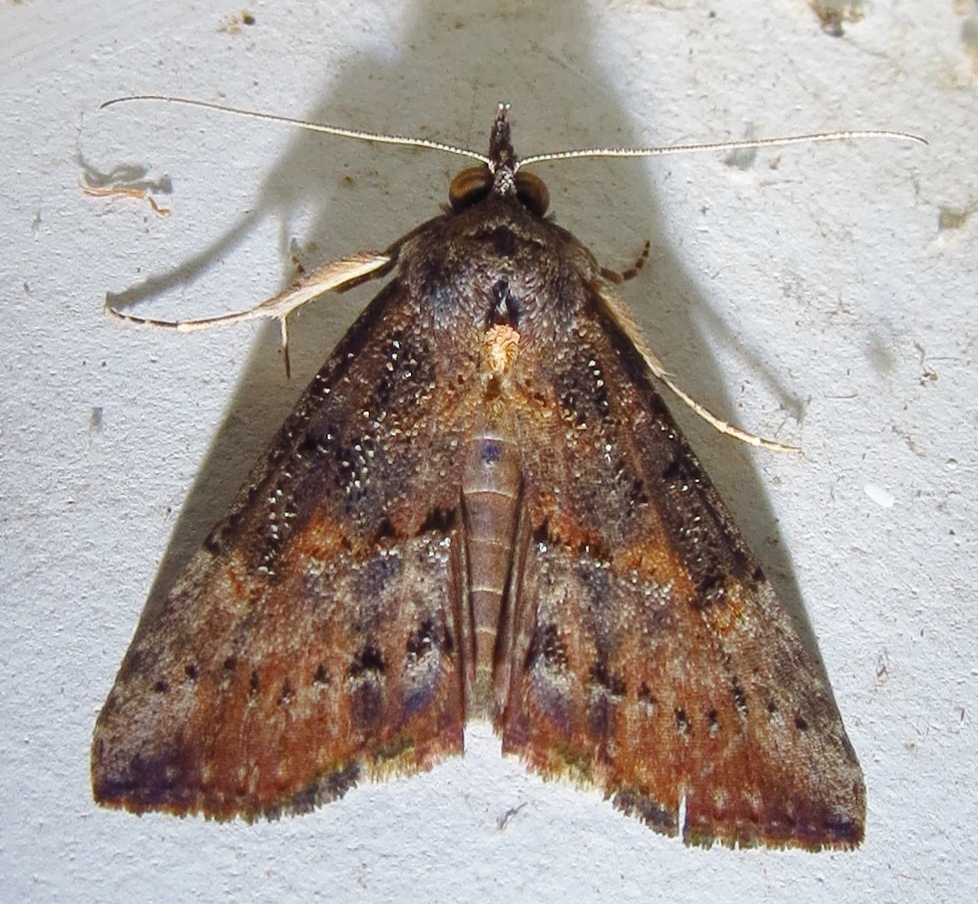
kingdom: Animalia
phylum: Arthropoda
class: Insecta
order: Lepidoptera
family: Erebidae
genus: Hypena
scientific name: Hypena scabra
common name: Green cloverworm
